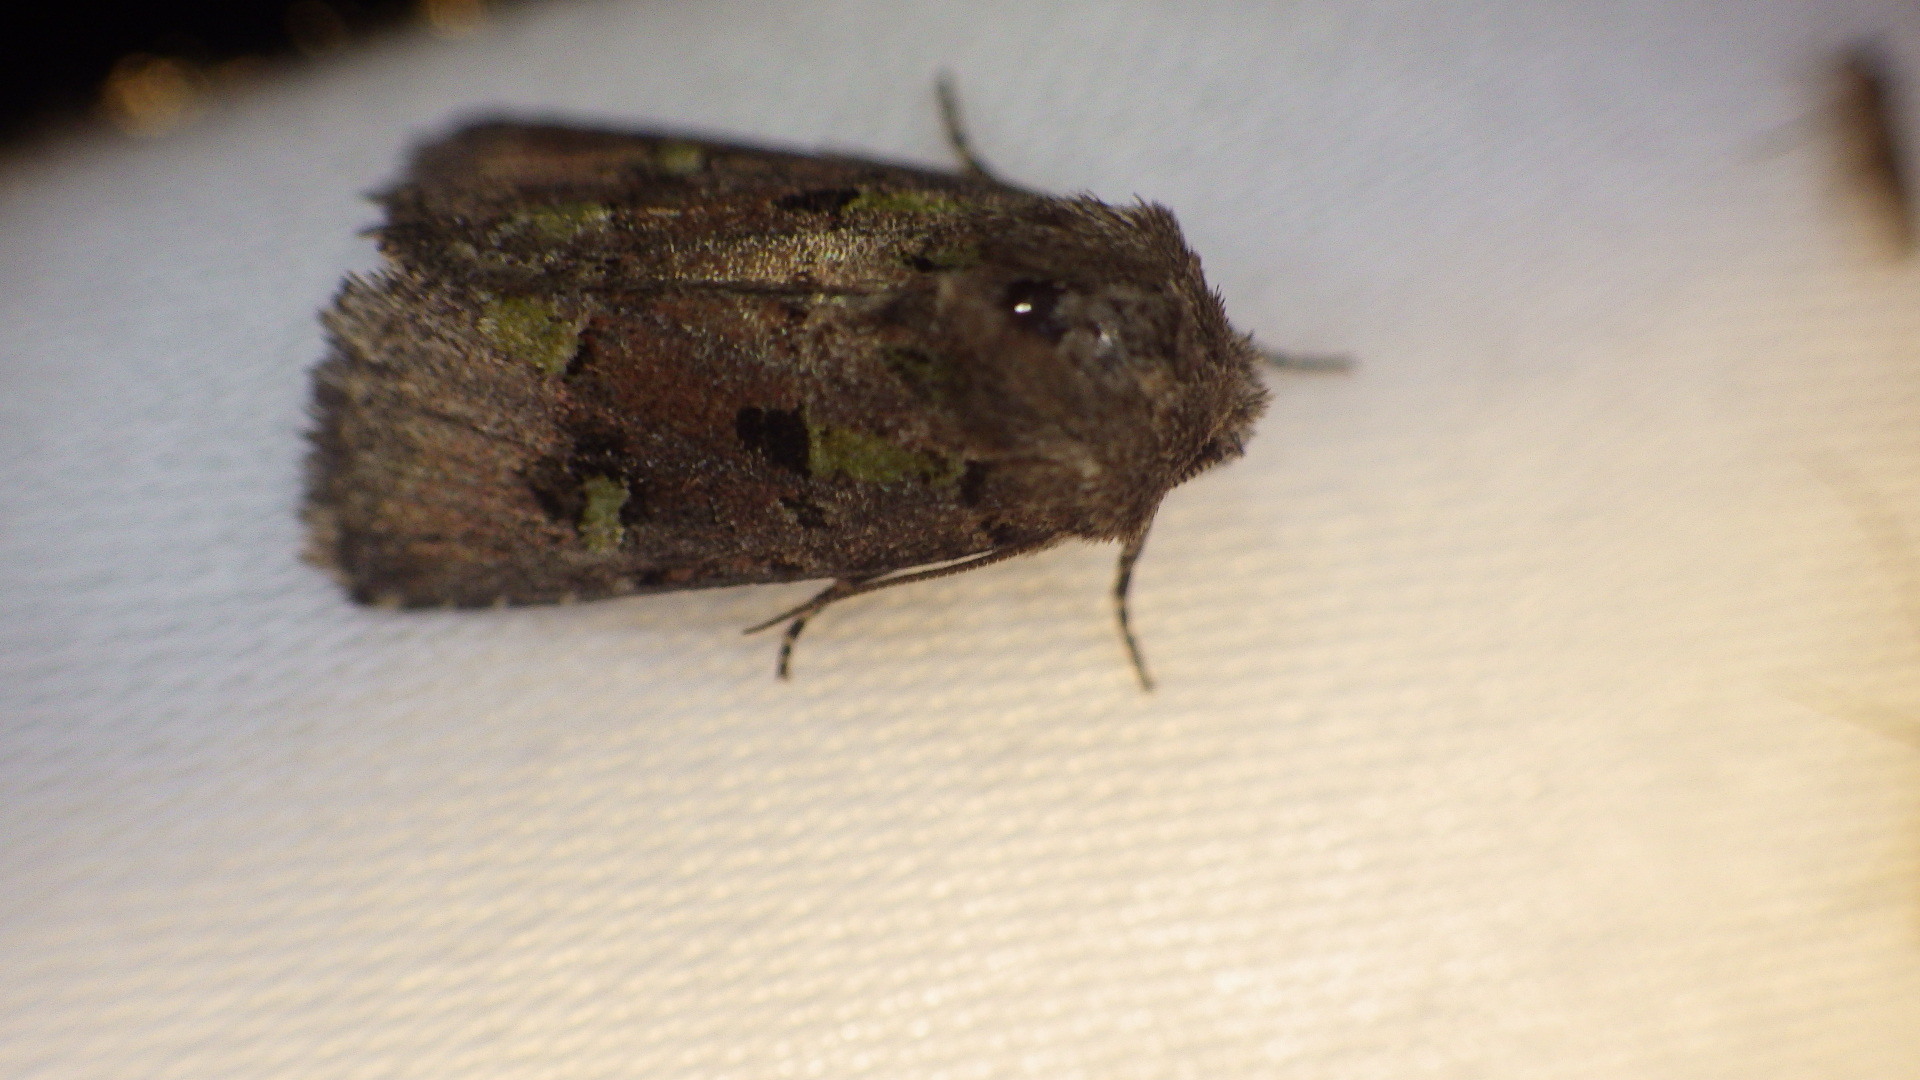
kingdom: Animalia
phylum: Arthropoda
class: Insecta
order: Lepidoptera
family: Noctuidae
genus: Lacinipolia
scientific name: Lacinipolia renigera
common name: Kidney-spotted minor
